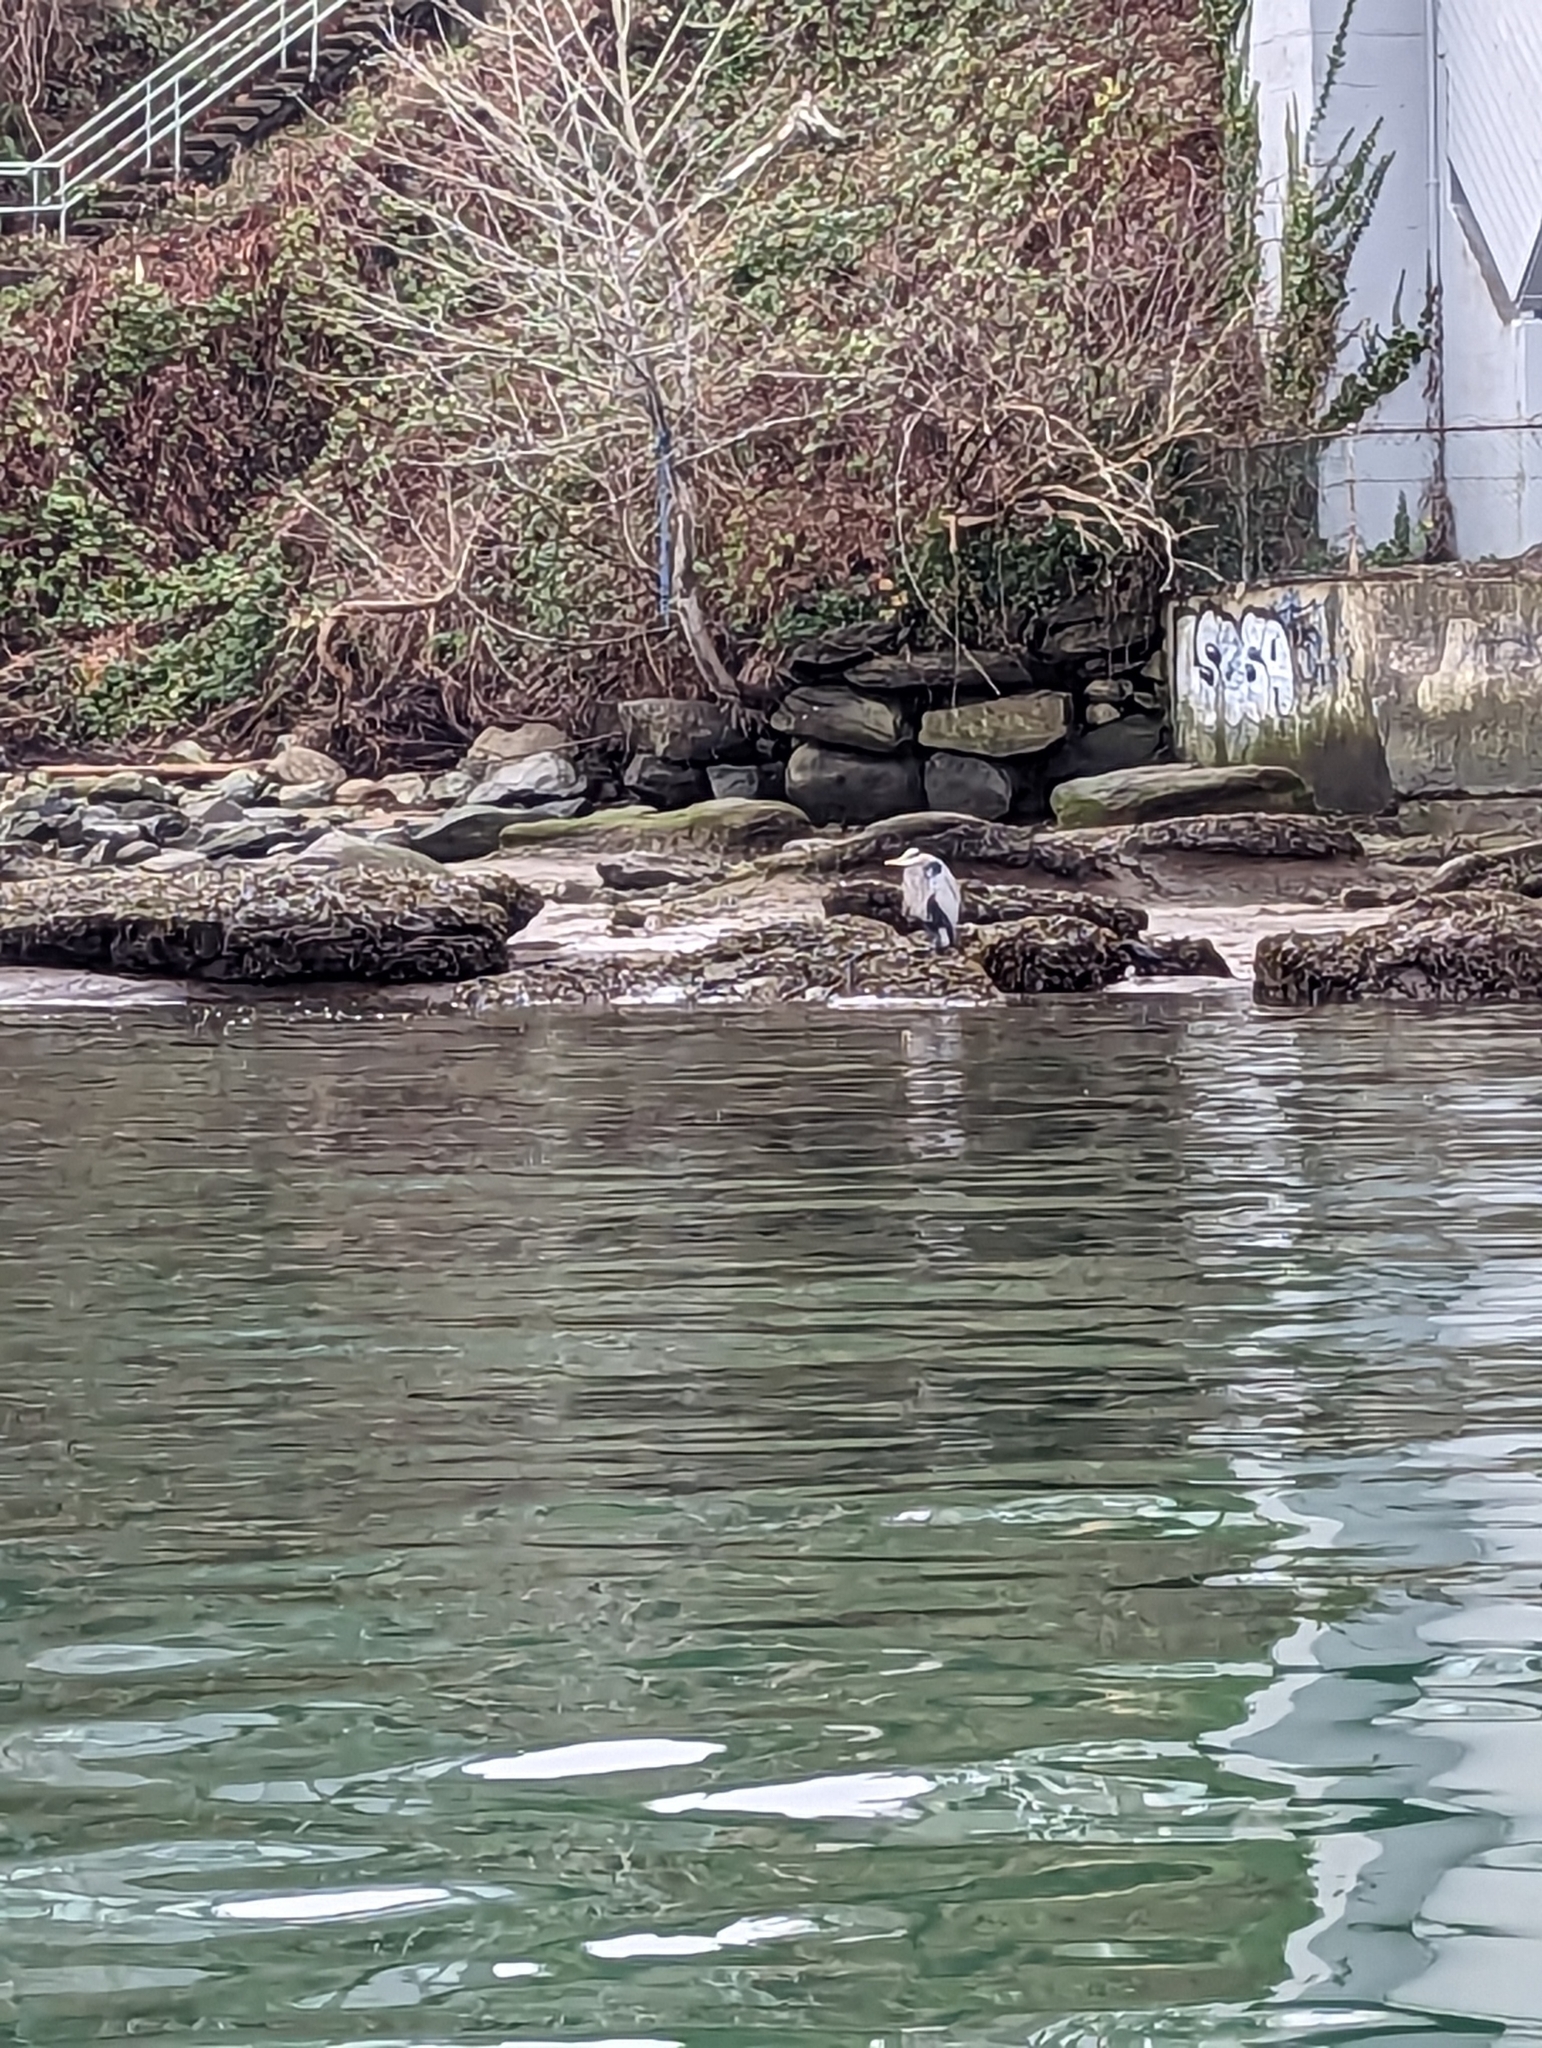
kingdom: Animalia
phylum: Chordata
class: Aves
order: Pelecaniformes
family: Ardeidae
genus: Ardea
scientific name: Ardea herodias
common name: Great blue heron
